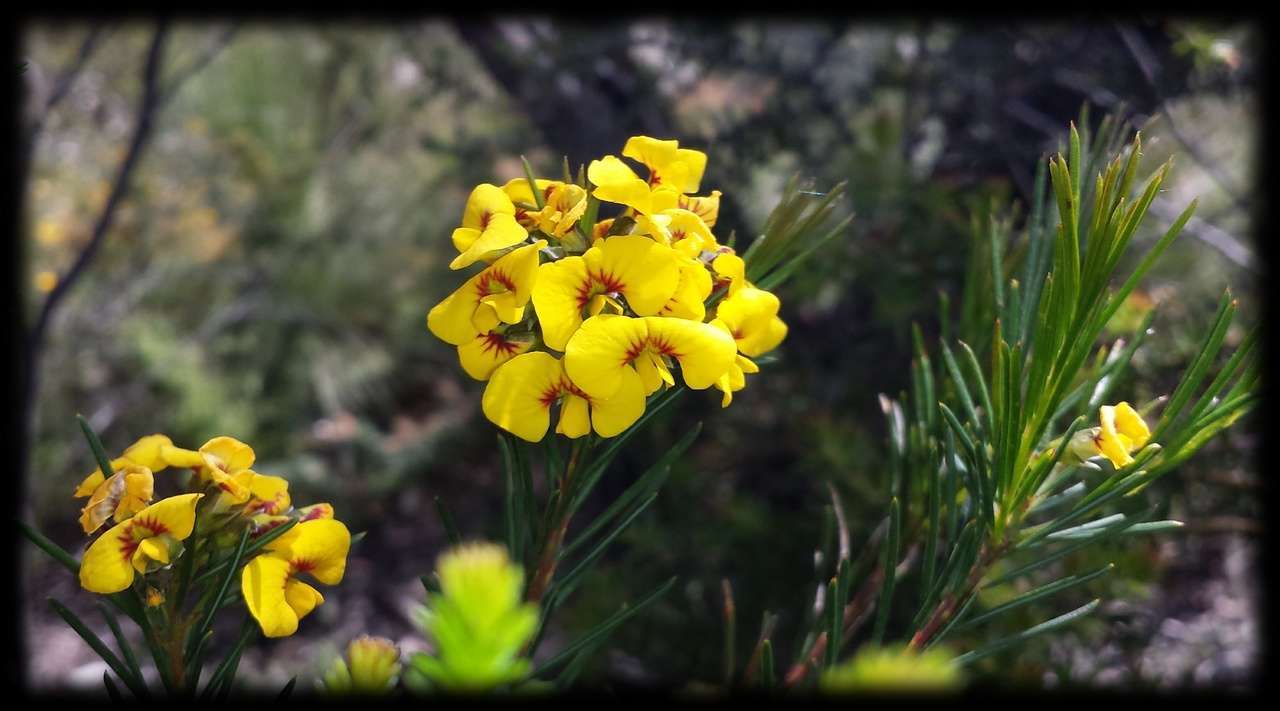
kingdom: Plantae
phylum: Tracheophyta
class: Magnoliopsida
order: Fabales
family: Fabaceae
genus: Dillwynia
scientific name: Dillwynia oreodoxa
